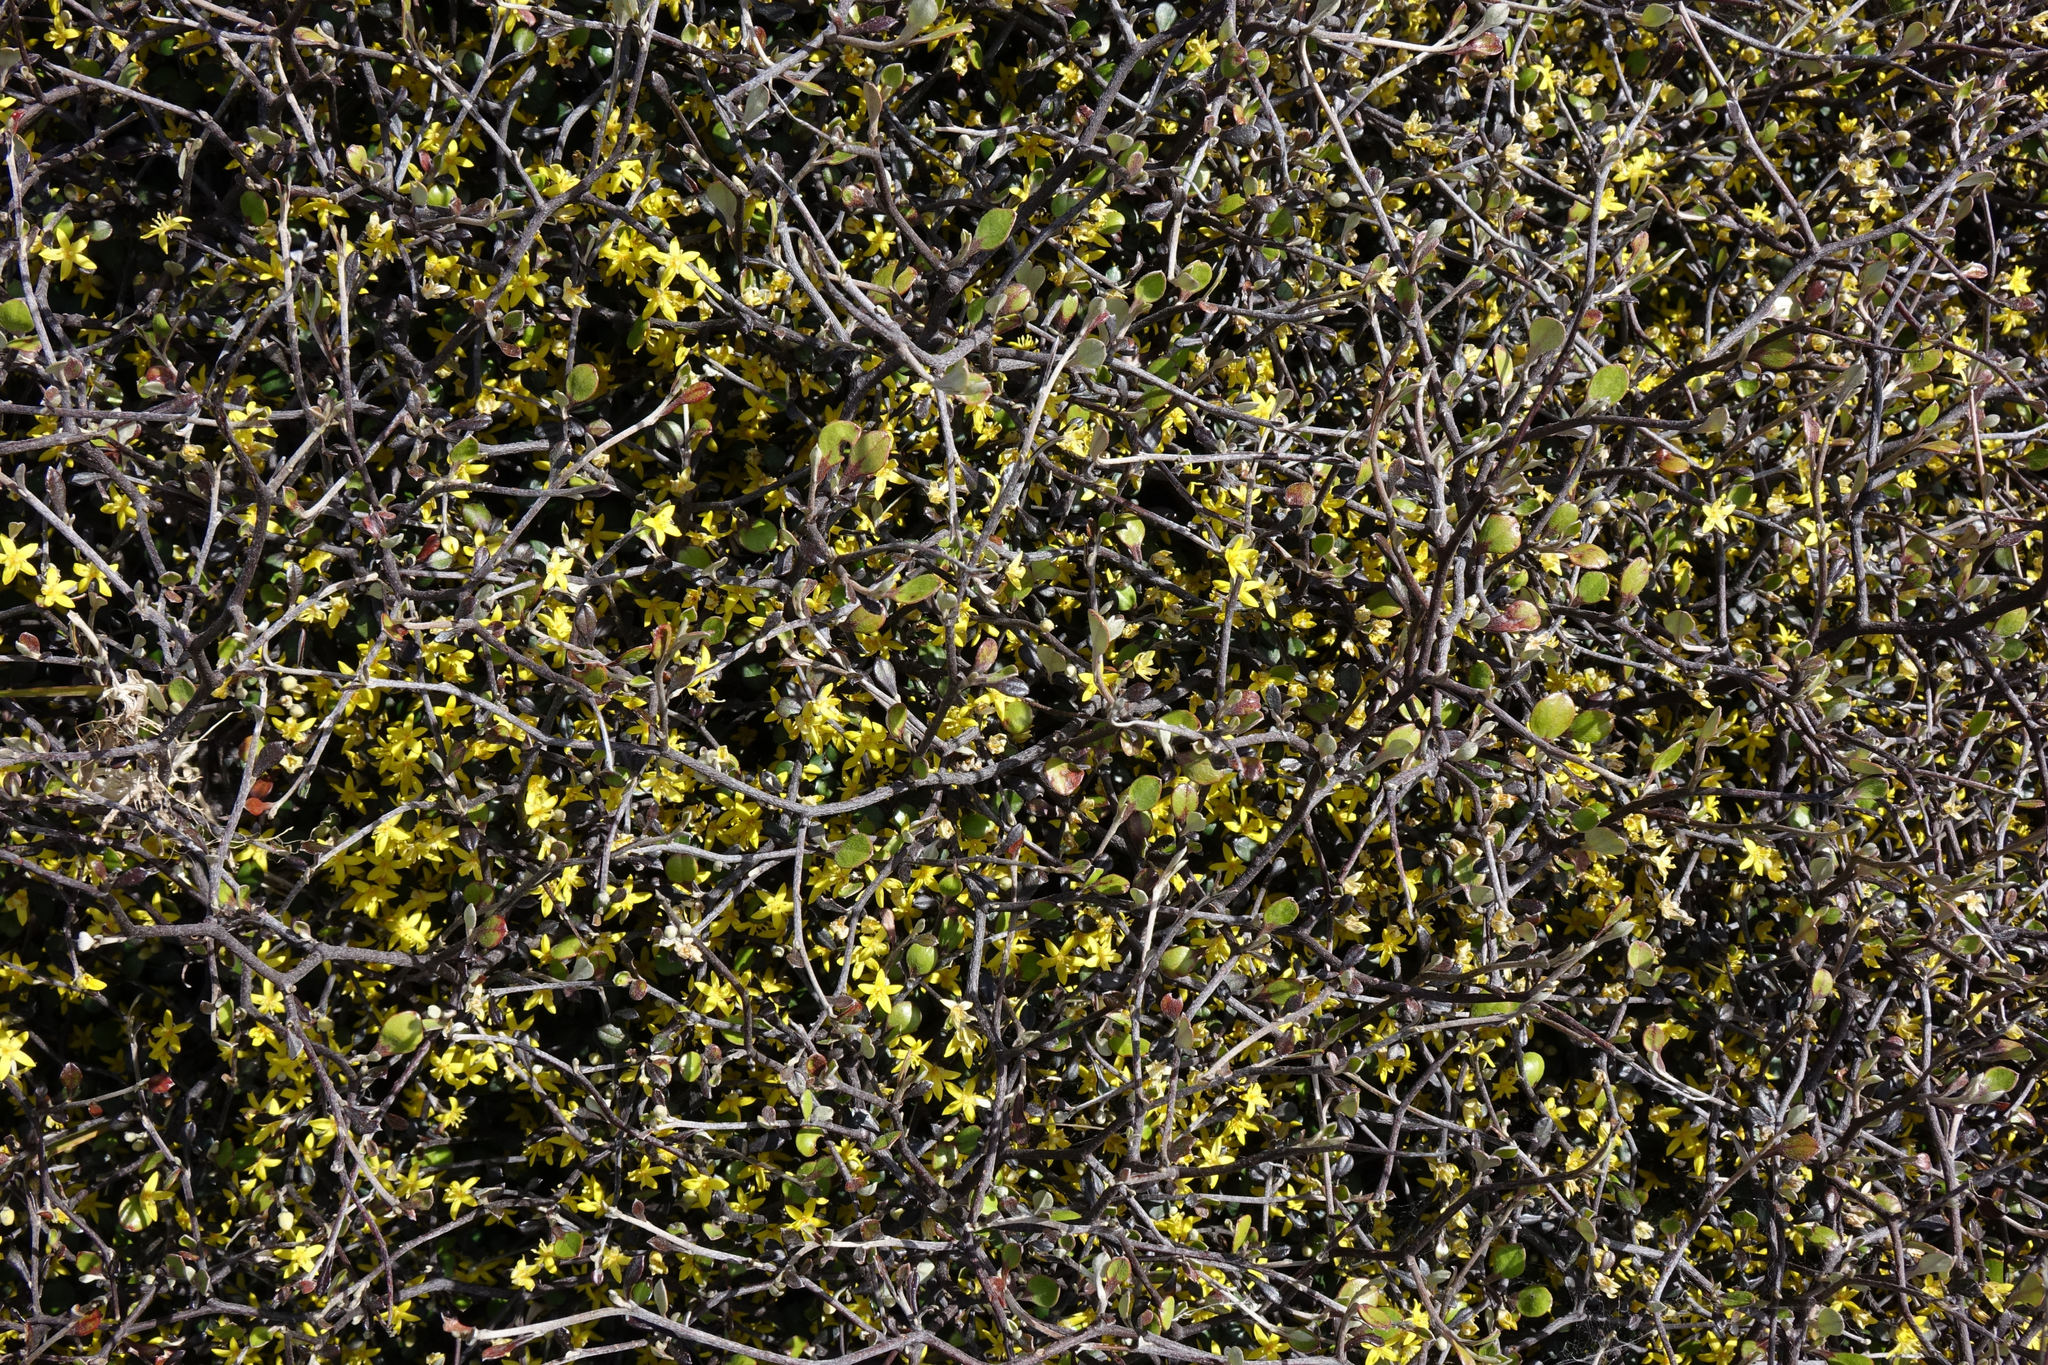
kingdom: Plantae
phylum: Tracheophyta
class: Magnoliopsida
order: Asterales
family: Argophyllaceae
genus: Corokia
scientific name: Corokia cotoneaster
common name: Wire nettingbush
